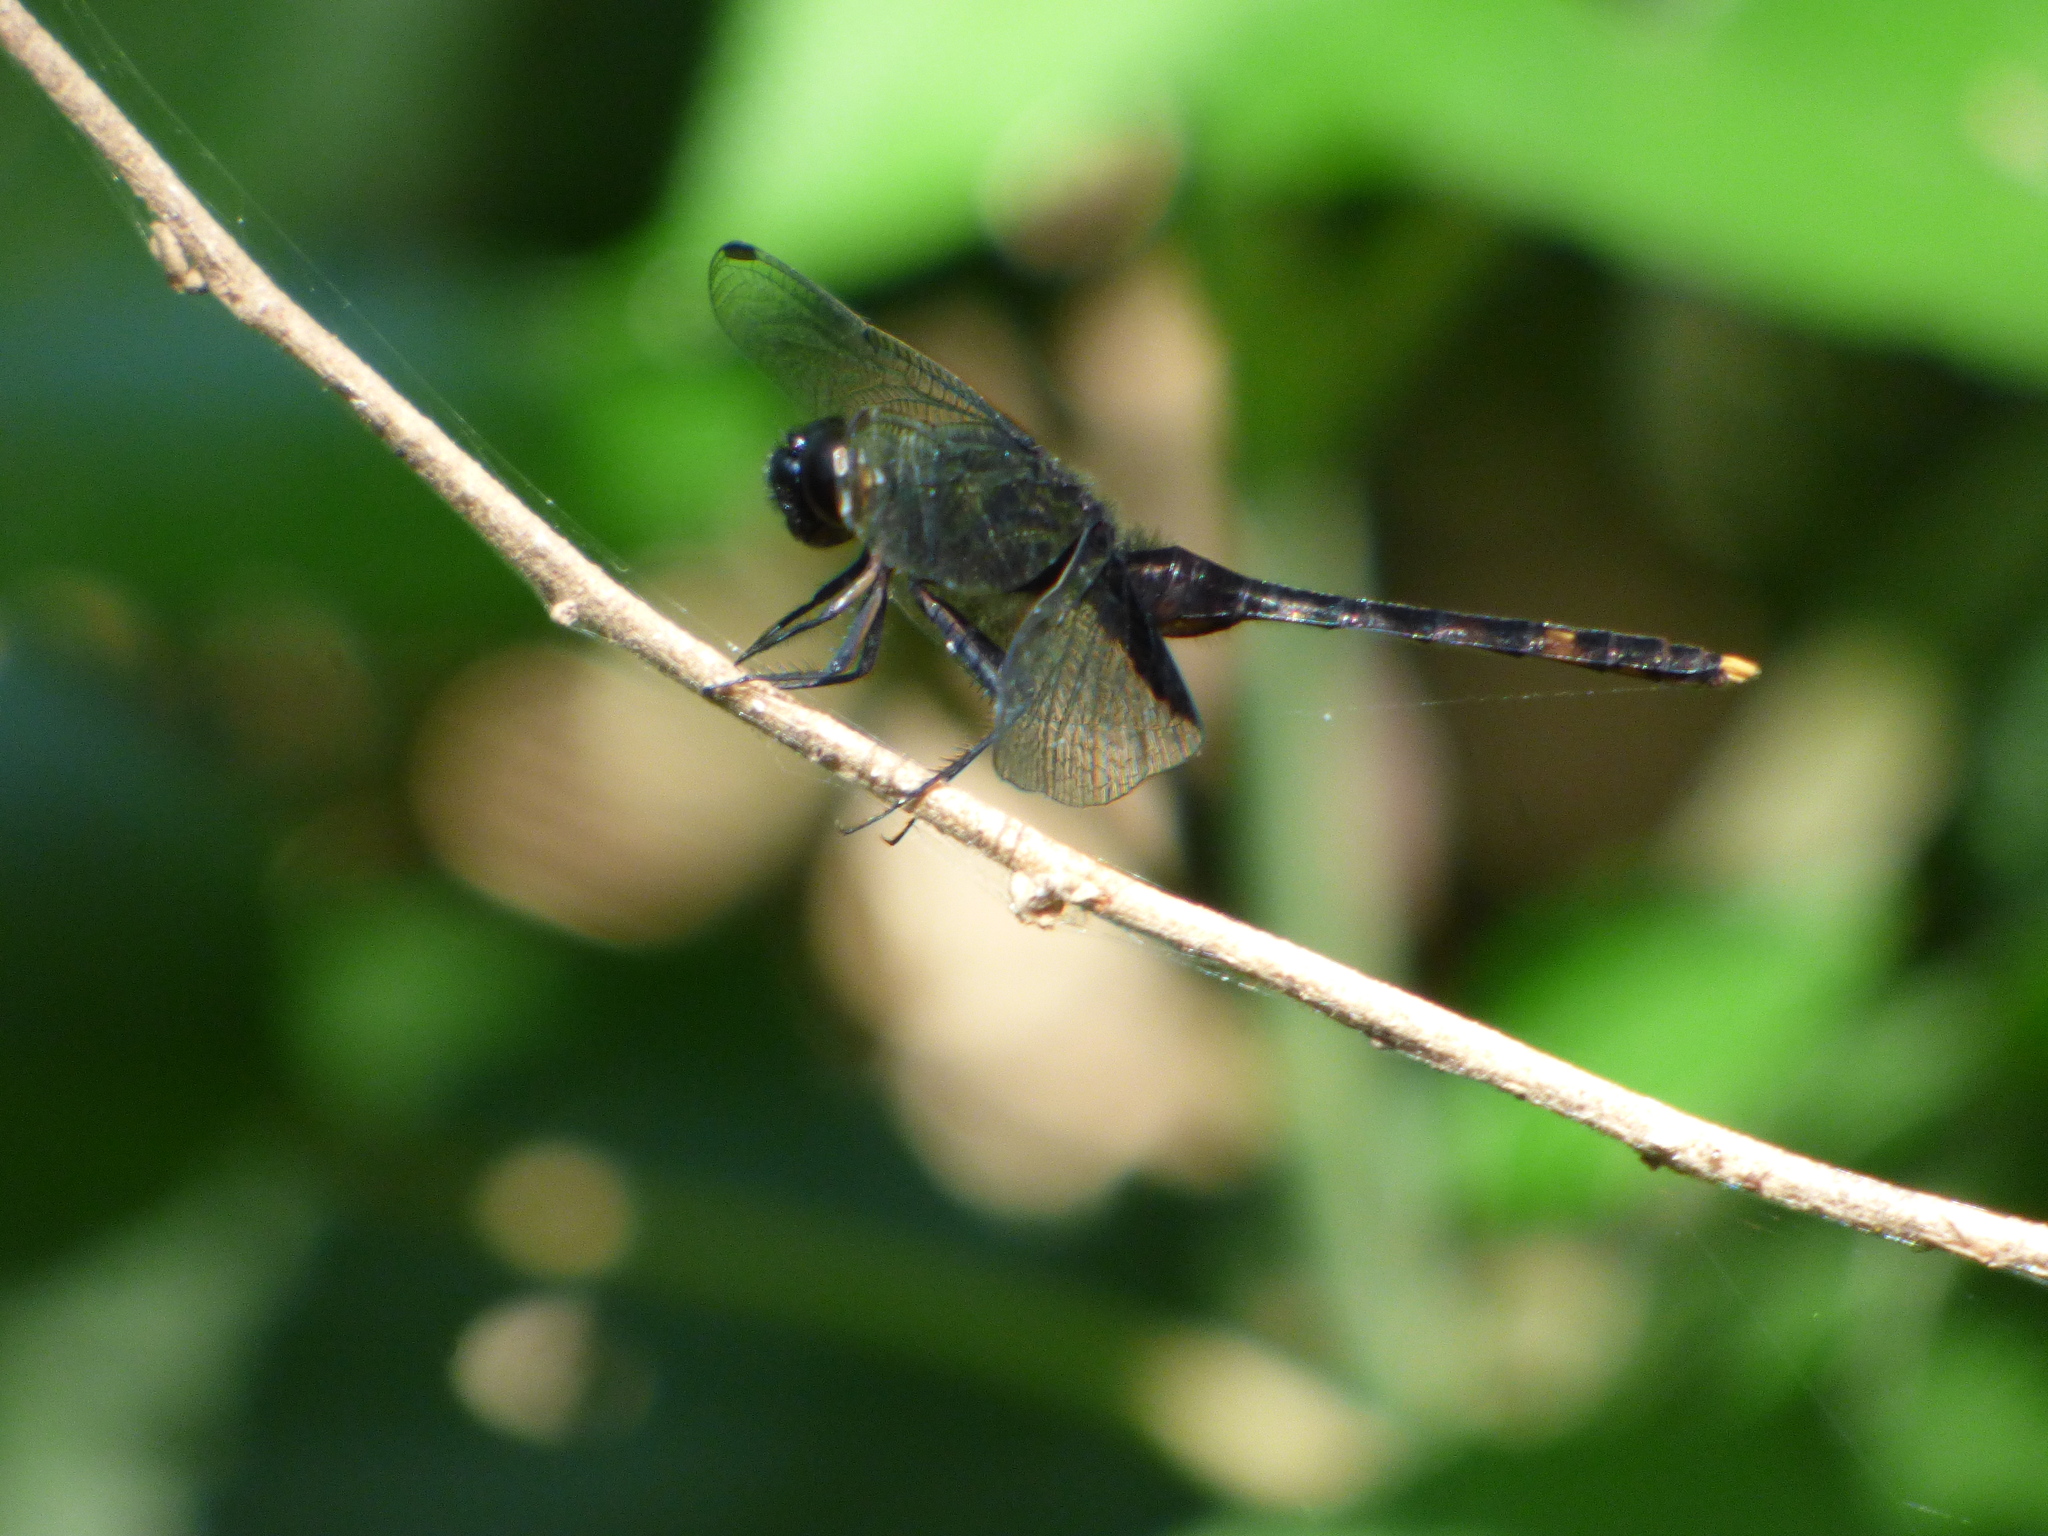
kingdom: Animalia
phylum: Arthropoda
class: Insecta
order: Odonata
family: Libellulidae
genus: Erythemis
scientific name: Erythemis attala
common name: Black pondhawk
